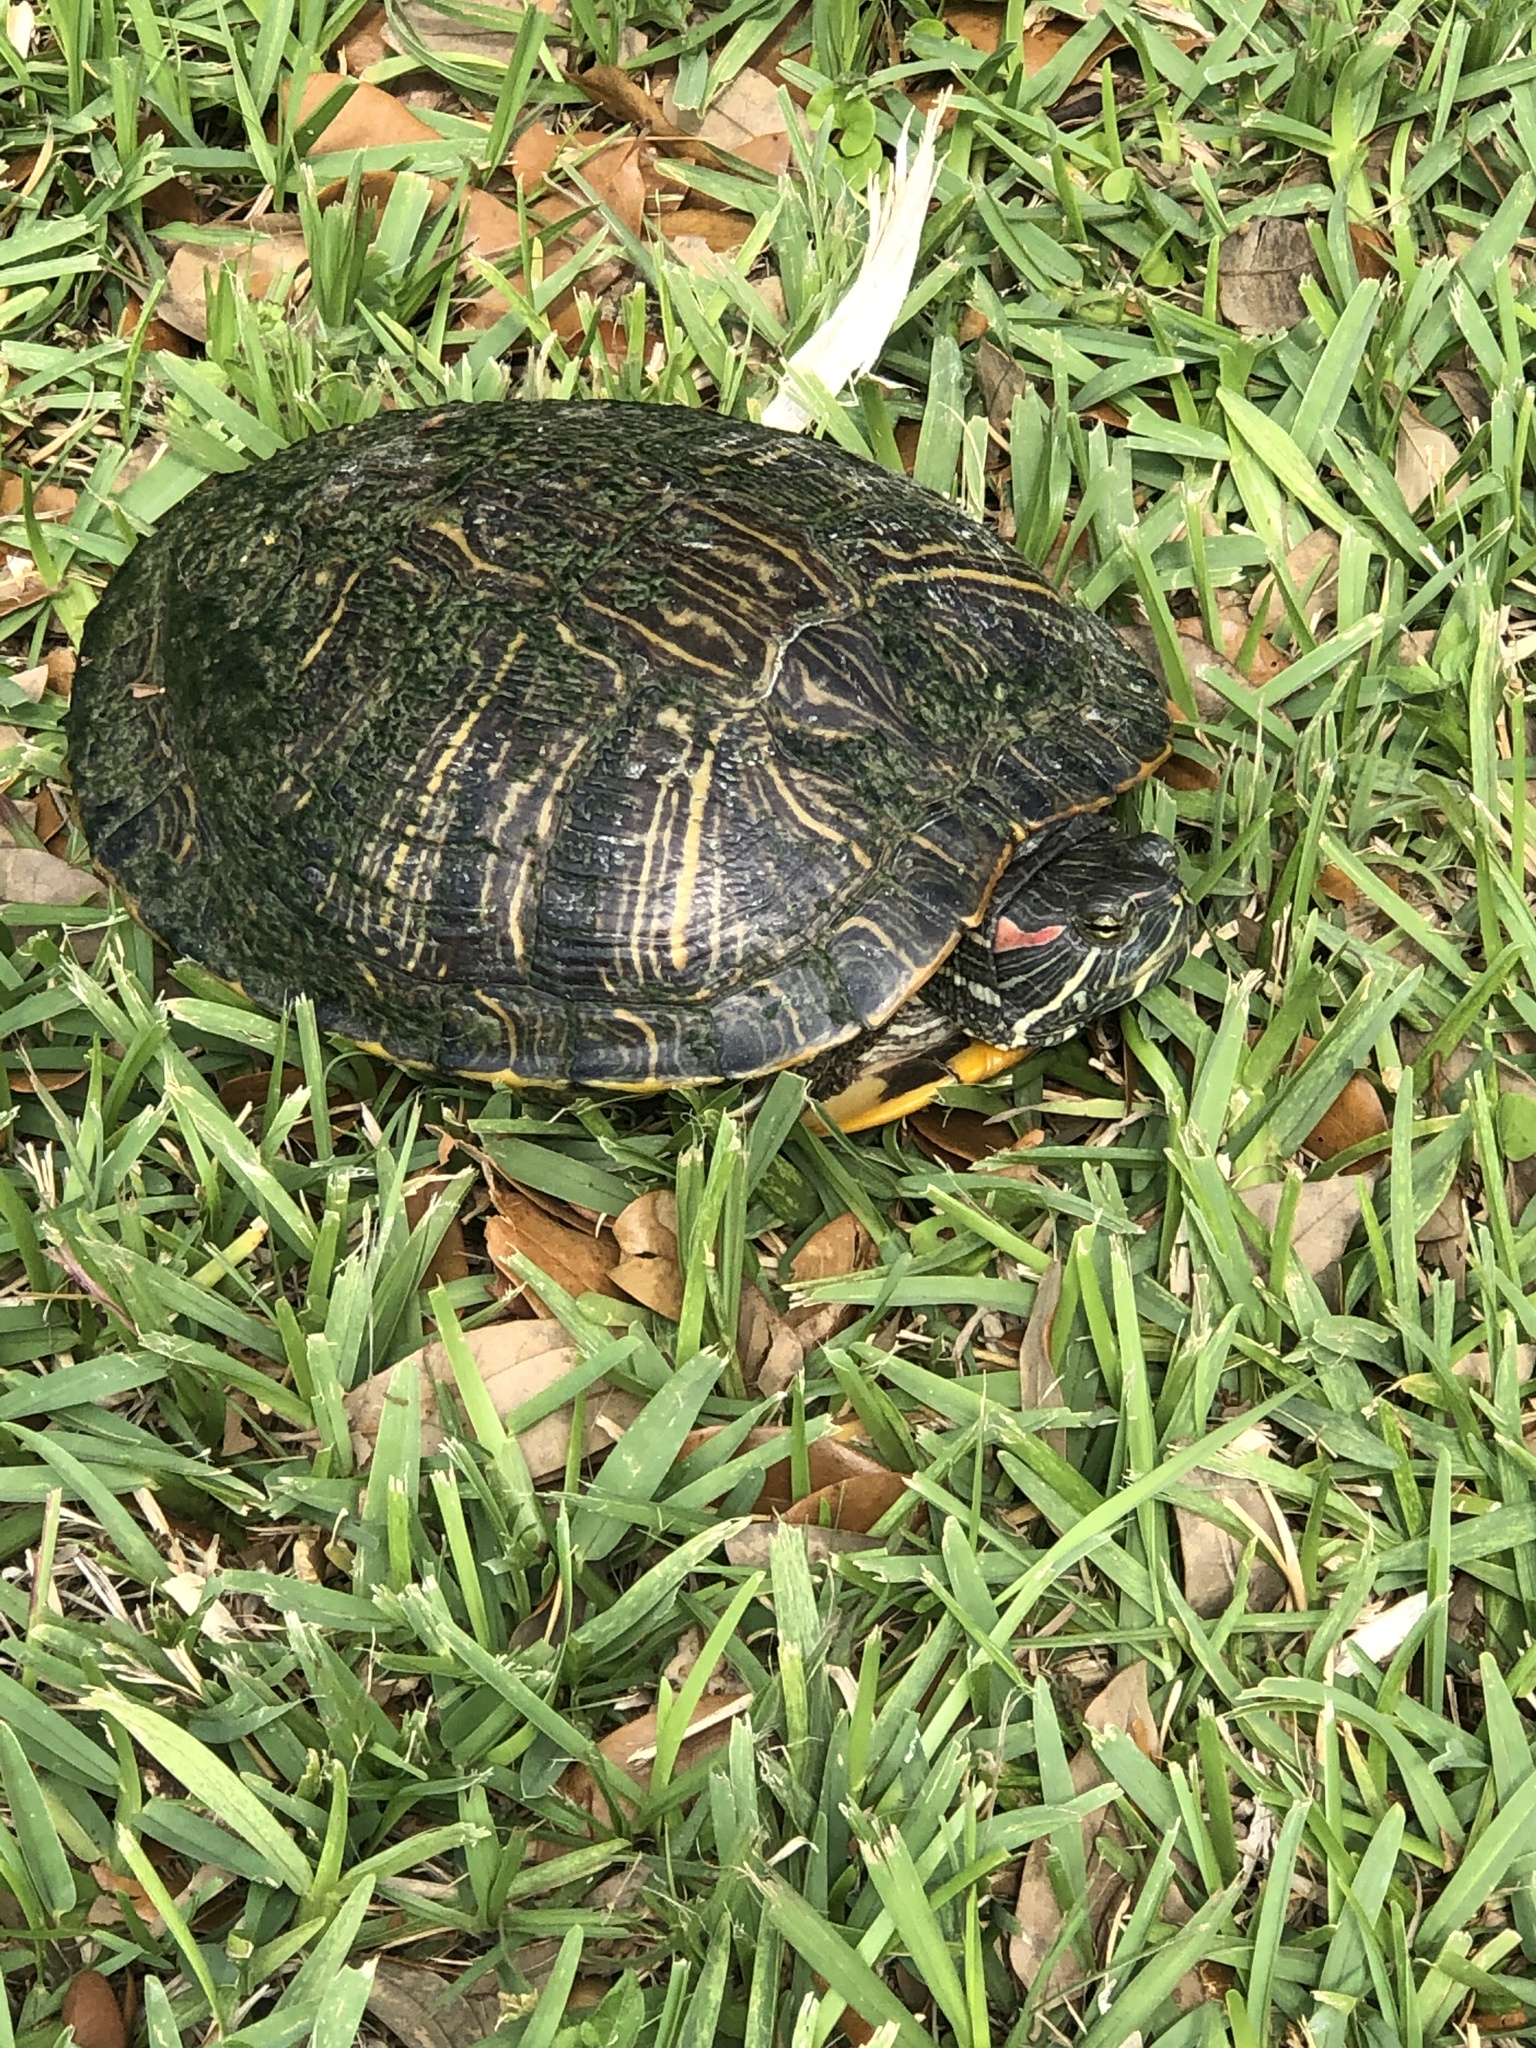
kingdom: Animalia
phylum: Chordata
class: Testudines
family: Emydidae
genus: Trachemys
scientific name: Trachemys scripta
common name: Slider
